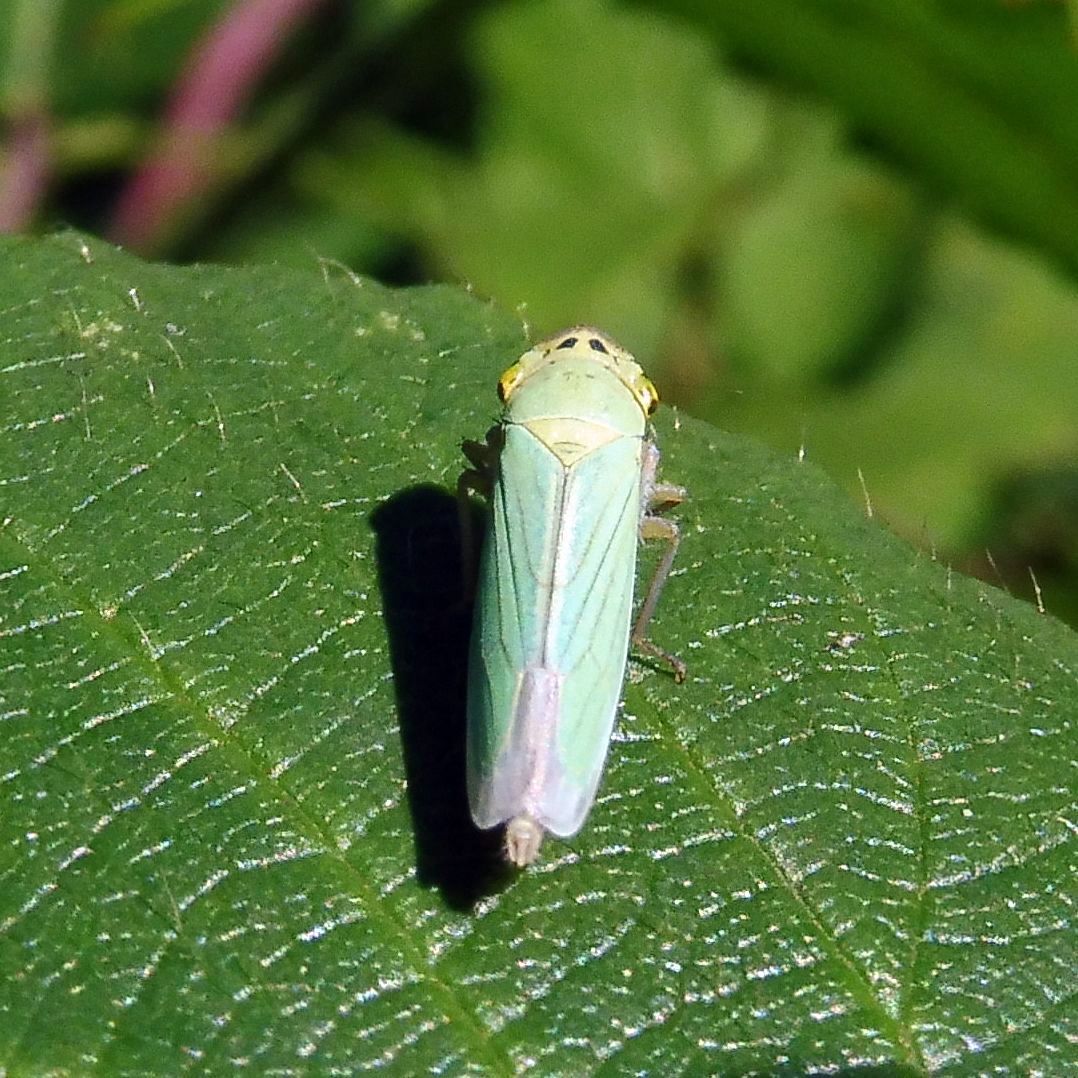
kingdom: Animalia
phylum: Arthropoda
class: Insecta
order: Hemiptera
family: Cicadellidae
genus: Cicadella
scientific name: Cicadella viridis
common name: Leafhopper
